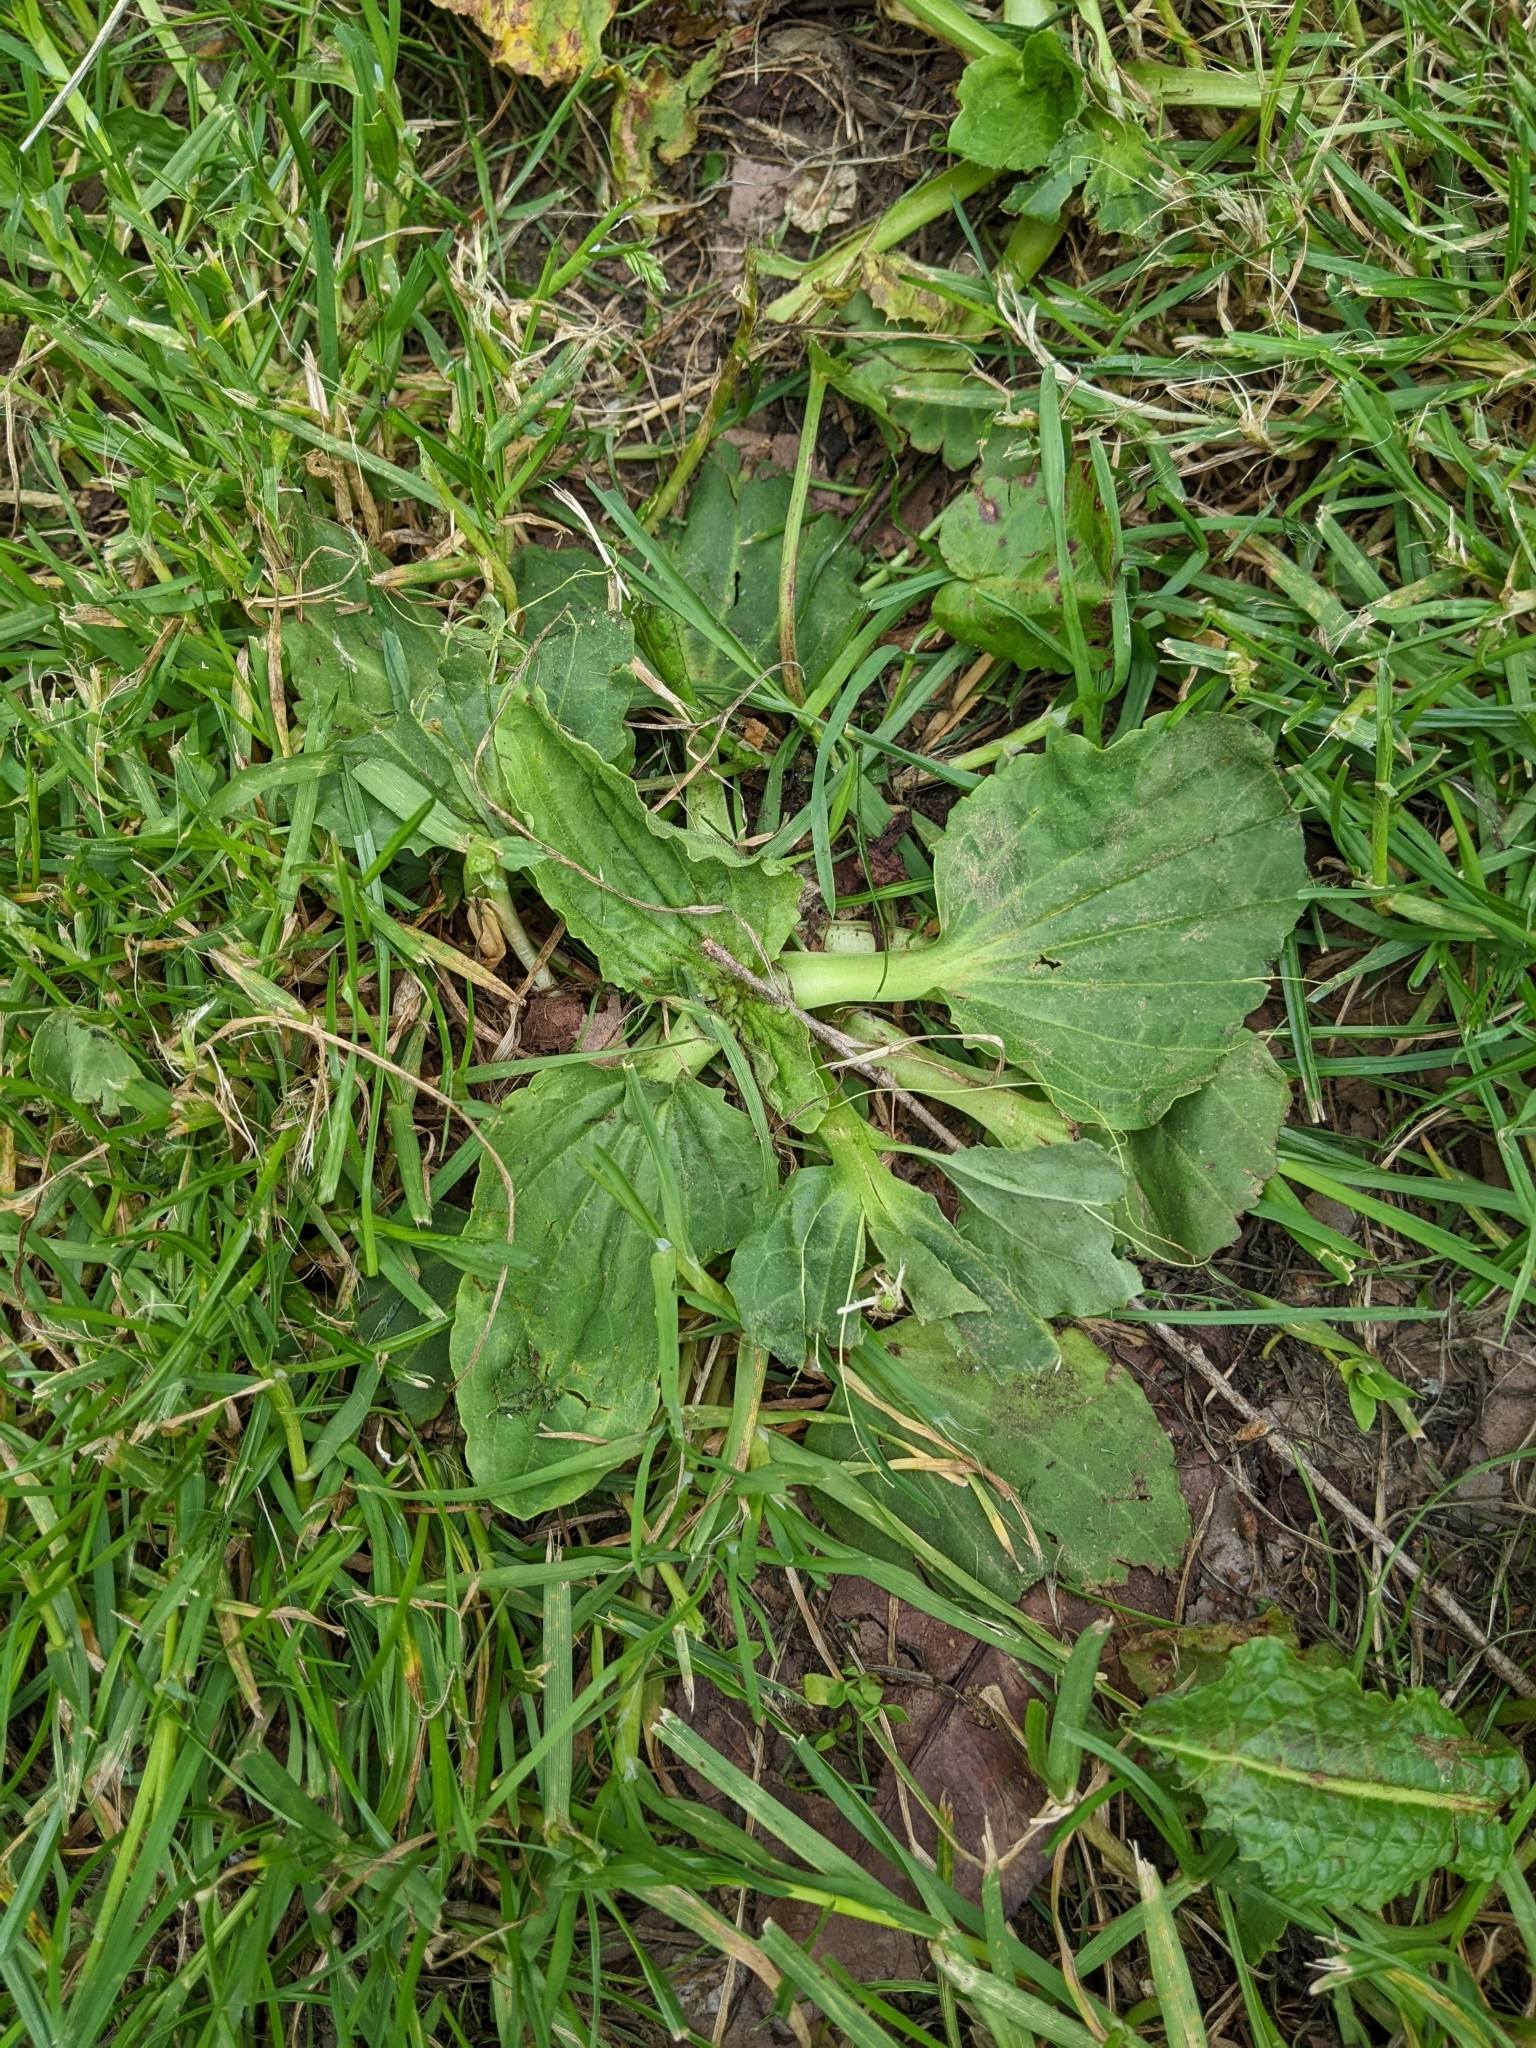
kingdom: Plantae
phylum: Tracheophyta
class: Magnoliopsida
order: Lamiales
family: Plantaginaceae
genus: Plantago
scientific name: Plantago major
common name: Common plantain
